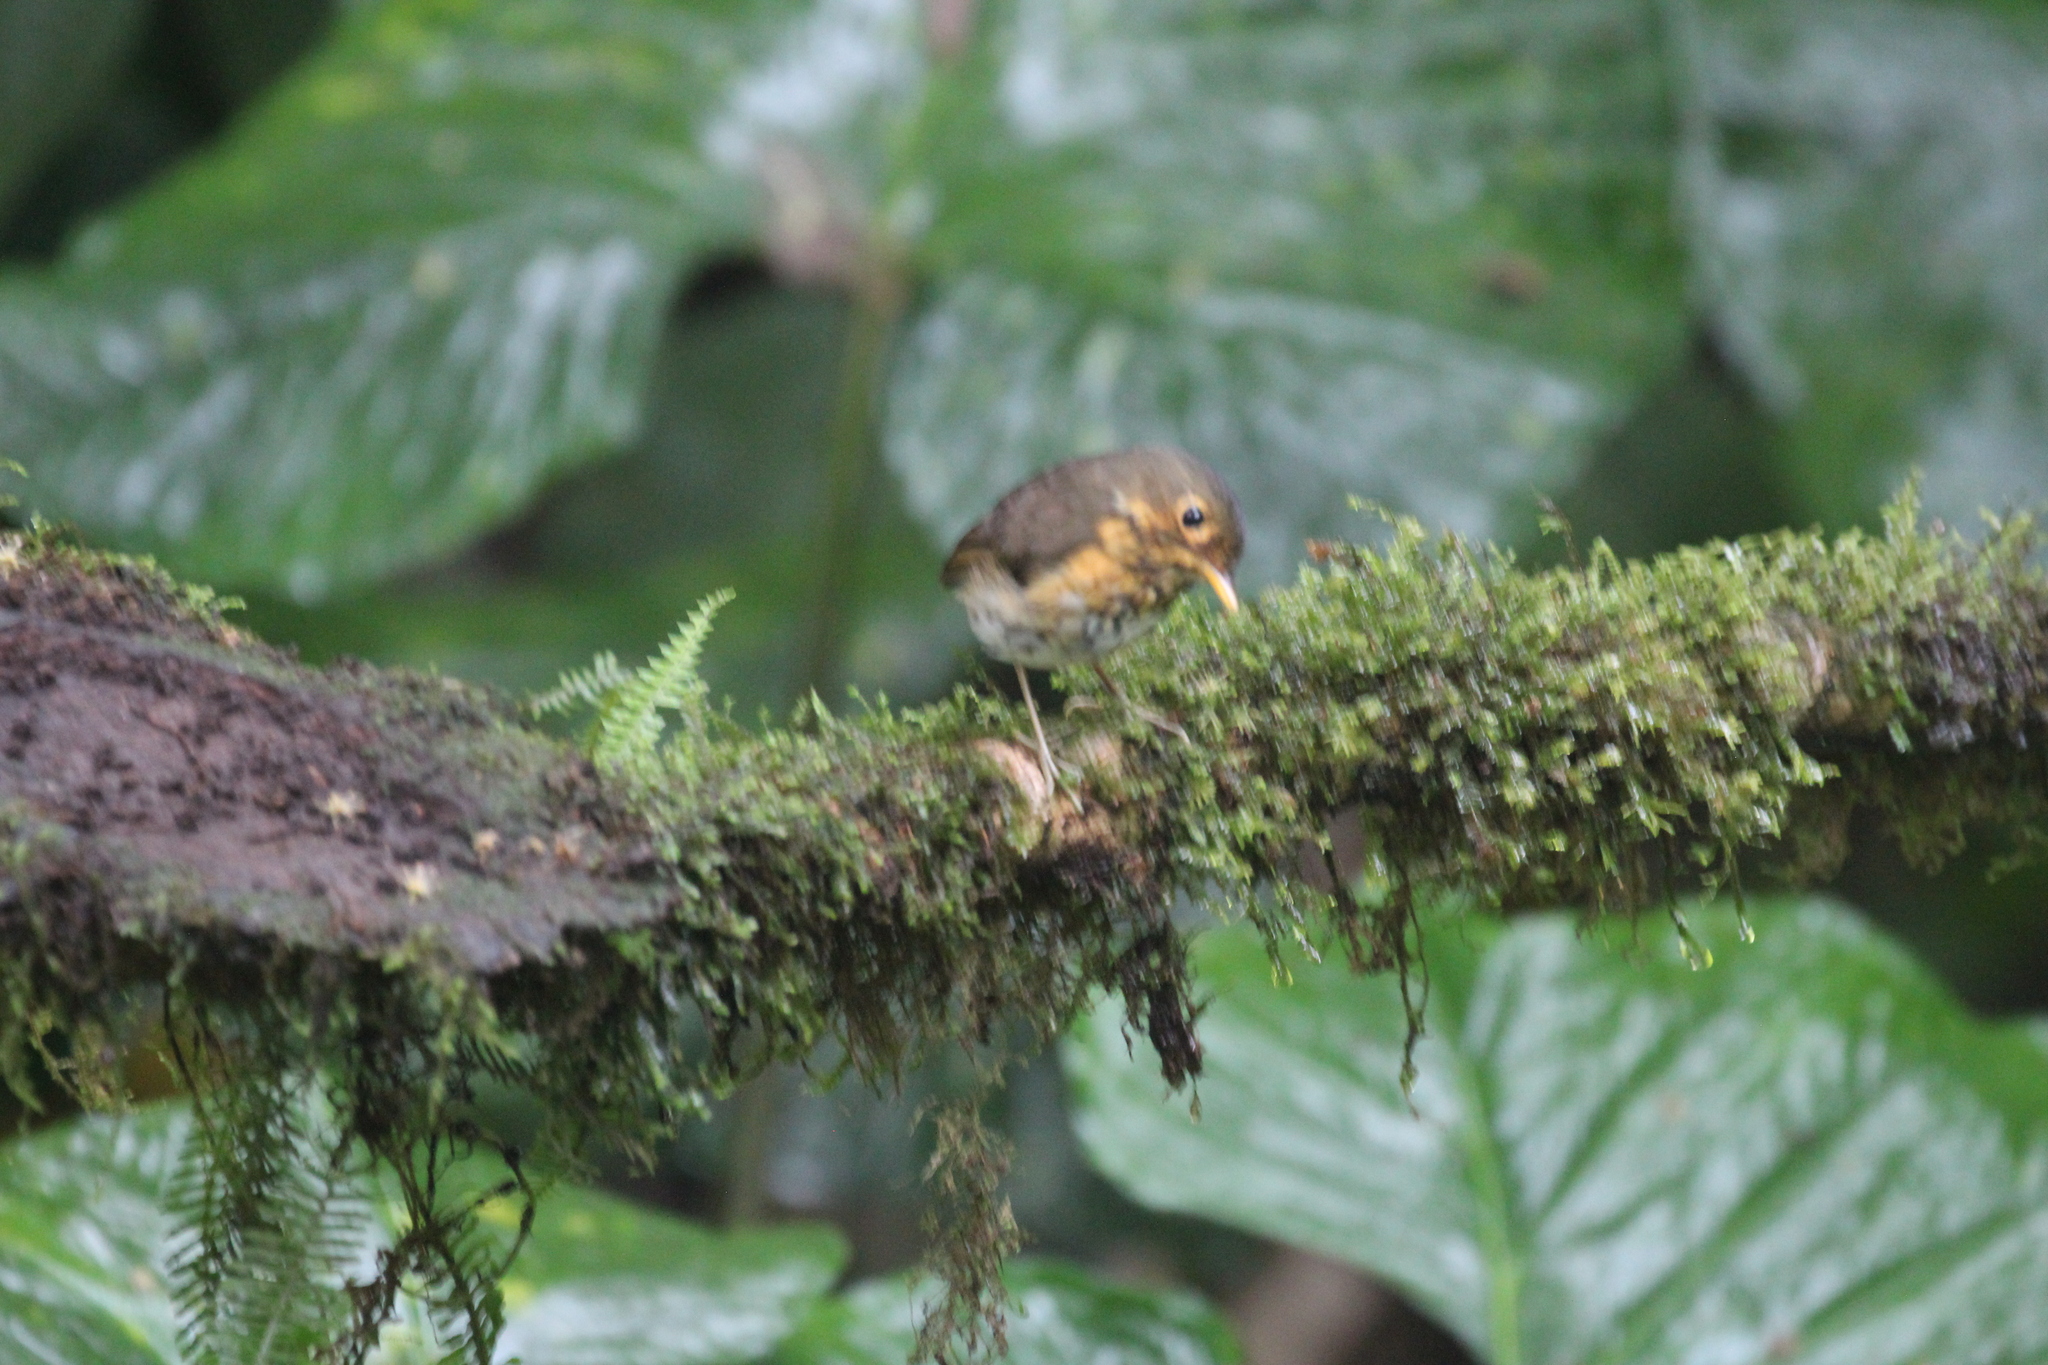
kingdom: Animalia
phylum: Chordata
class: Aves
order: Passeriformes
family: Grallariidae
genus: Grallaricula
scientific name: Grallaricula flavirostris
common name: Ochre-breasted antpitta
